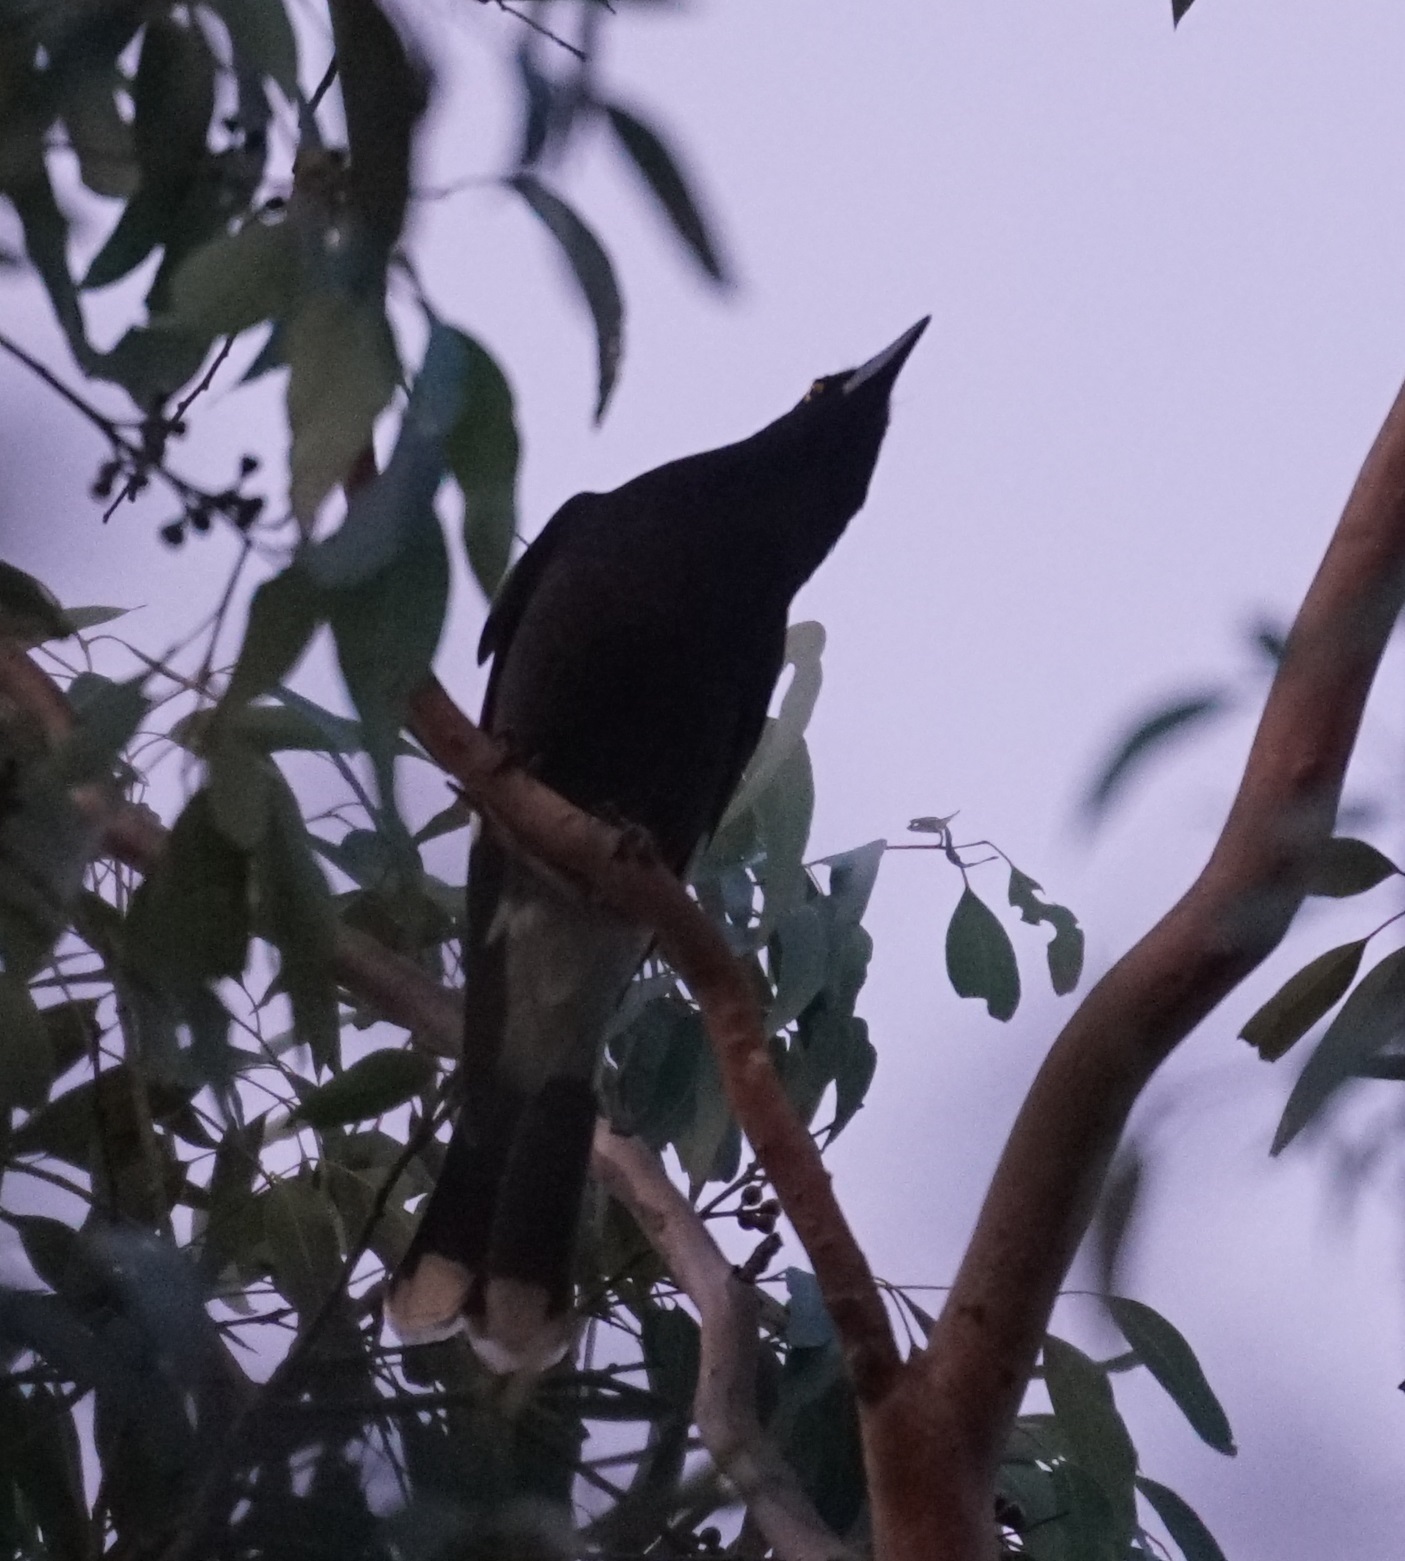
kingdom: Animalia
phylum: Chordata
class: Aves
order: Passeriformes
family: Cracticidae
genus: Strepera
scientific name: Strepera graculina
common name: Pied currawong
